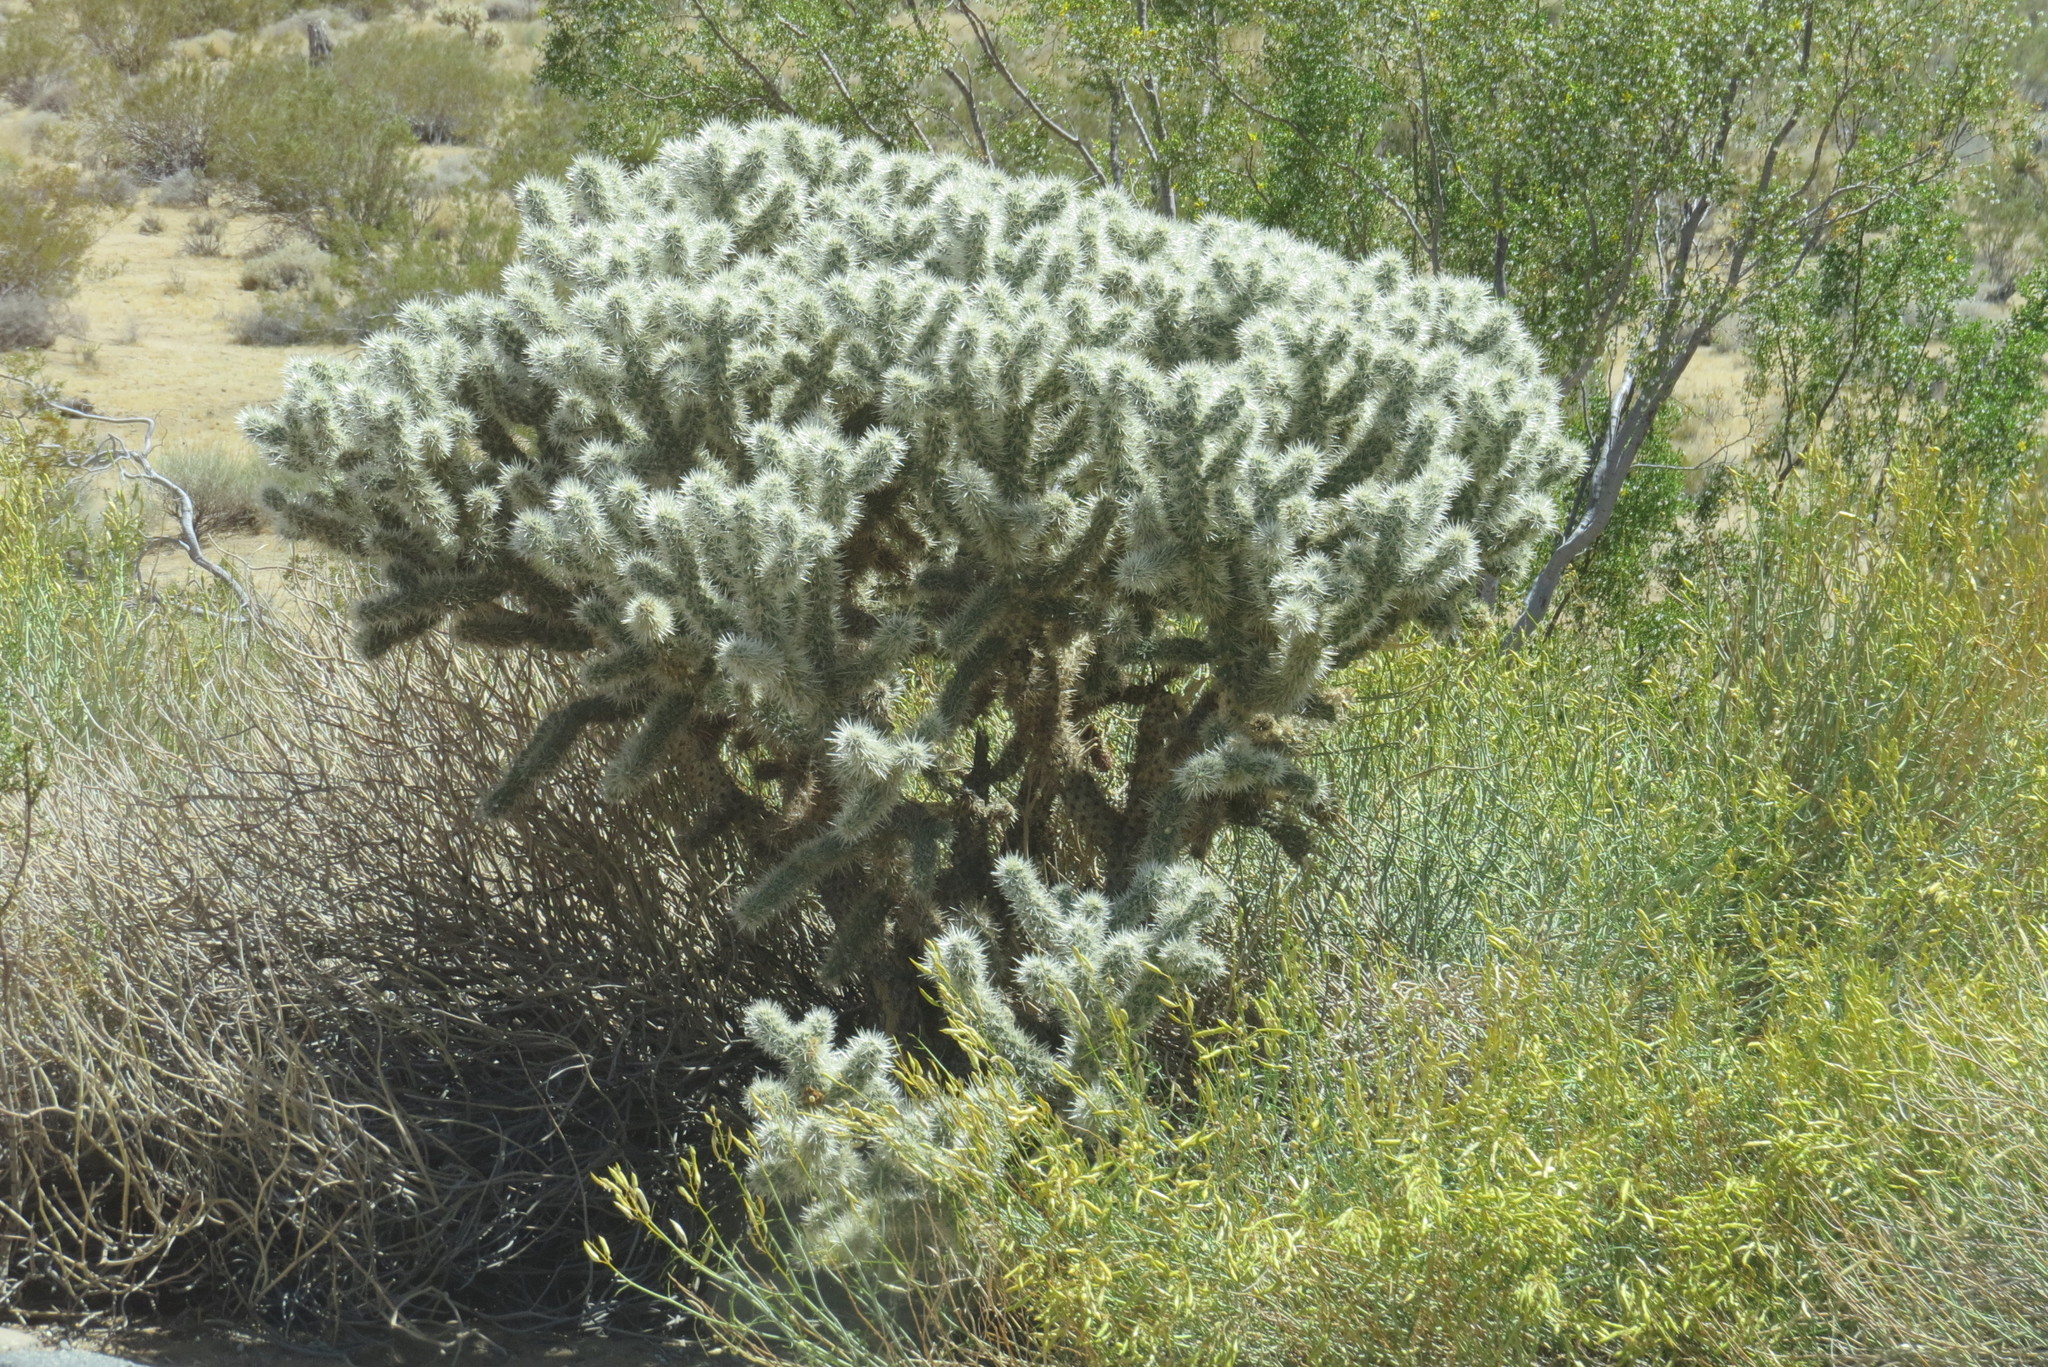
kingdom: Plantae
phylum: Tracheophyta
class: Magnoliopsida
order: Caryophyllales
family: Cactaceae
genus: Cylindropuntia
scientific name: Cylindropuntia echinocarpa
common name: Ground cholla
